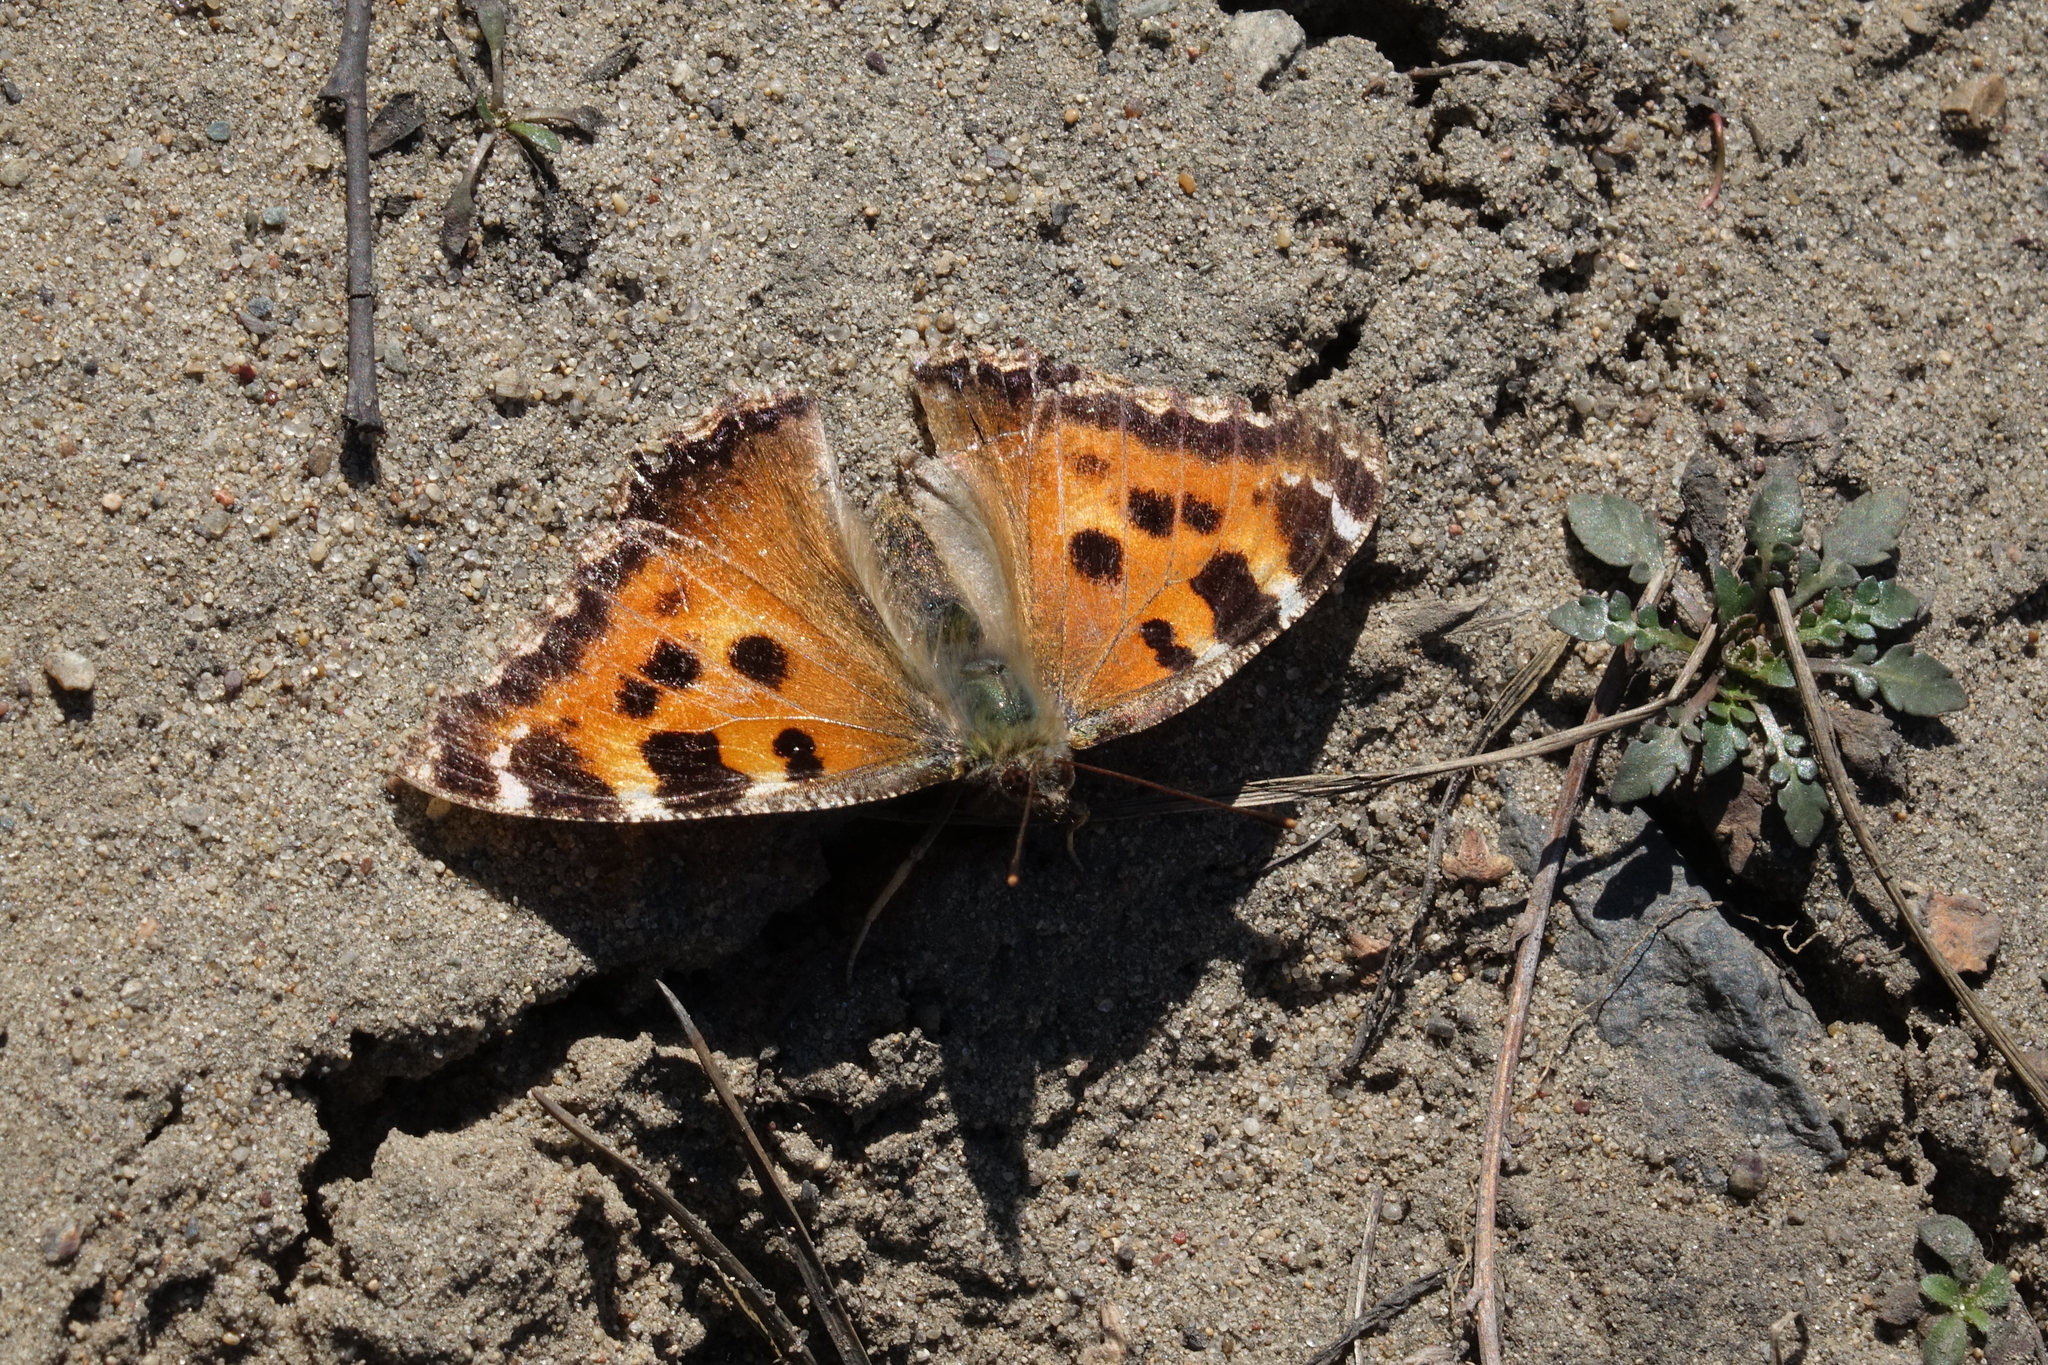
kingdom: Animalia
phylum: Arthropoda
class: Insecta
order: Lepidoptera
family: Nymphalidae
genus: Nymphalis
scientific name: Nymphalis xanthomelas
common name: Scarce tortoiseshell
